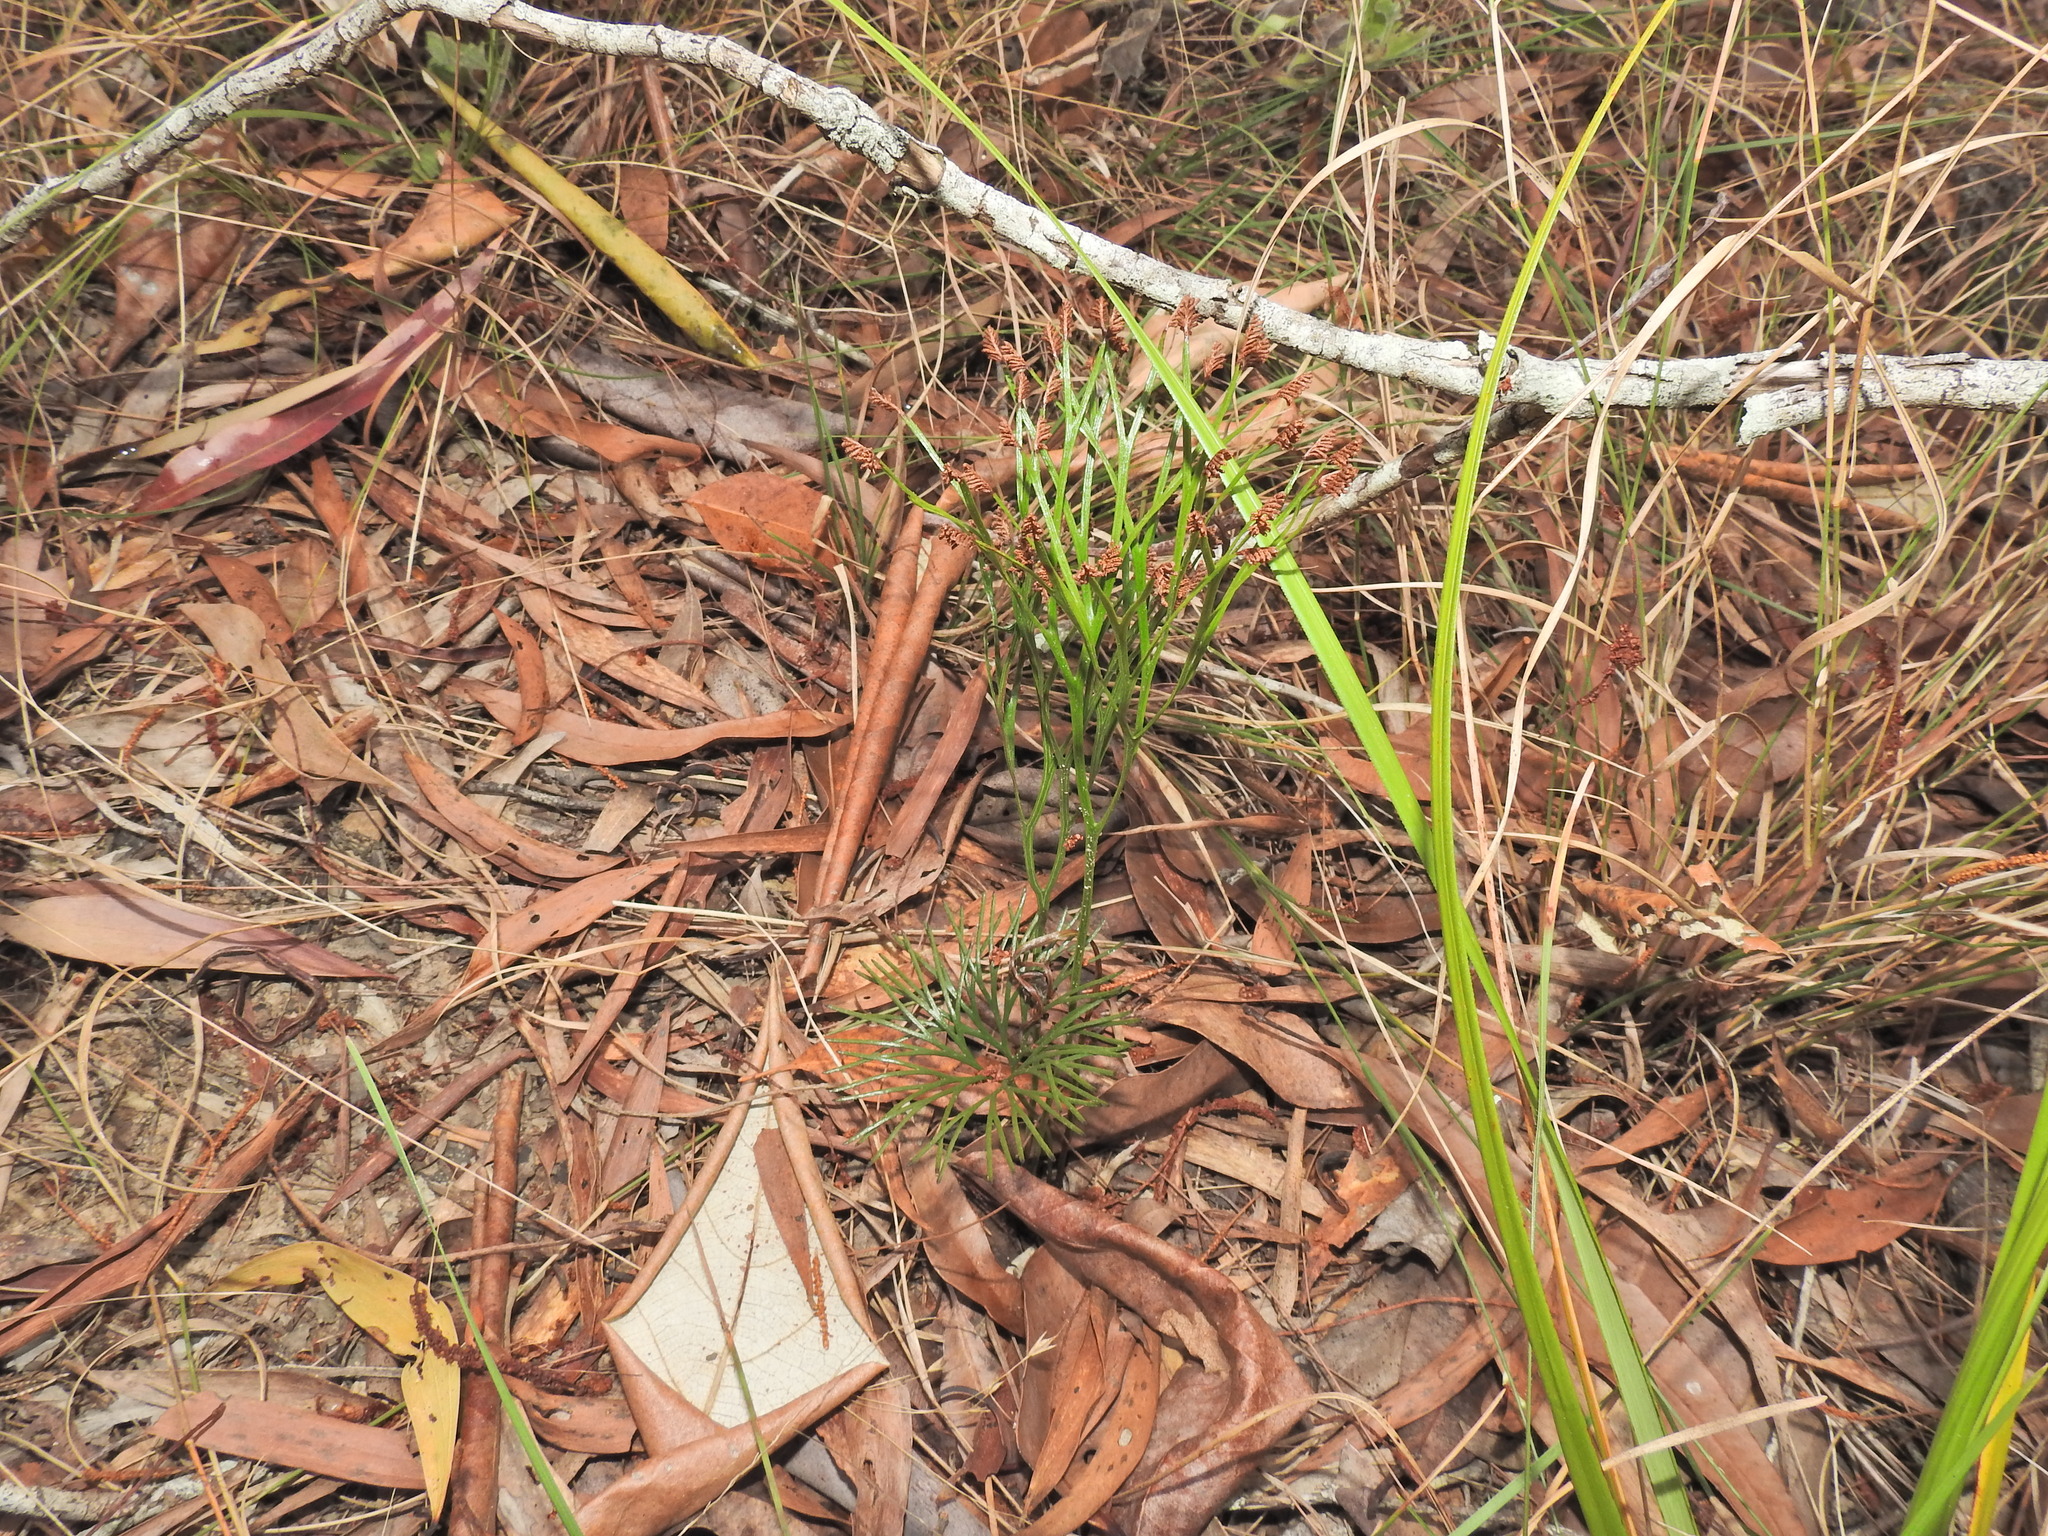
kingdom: Plantae
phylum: Tracheophyta
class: Polypodiopsida
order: Schizaeales
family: Schizaeaceae
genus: Schizaea
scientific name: Schizaea bifida
